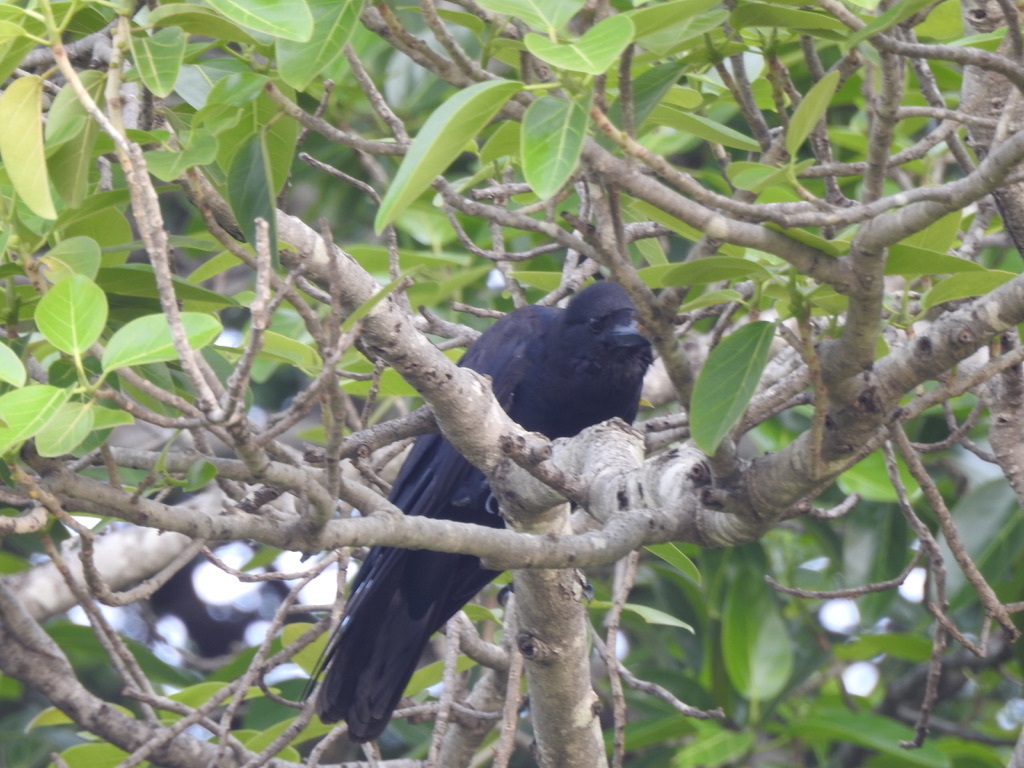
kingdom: Animalia
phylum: Chordata
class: Aves
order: Passeriformes
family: Corvidae
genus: Corvus
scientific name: Corvus macrorhynchos
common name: Large-billed crow
